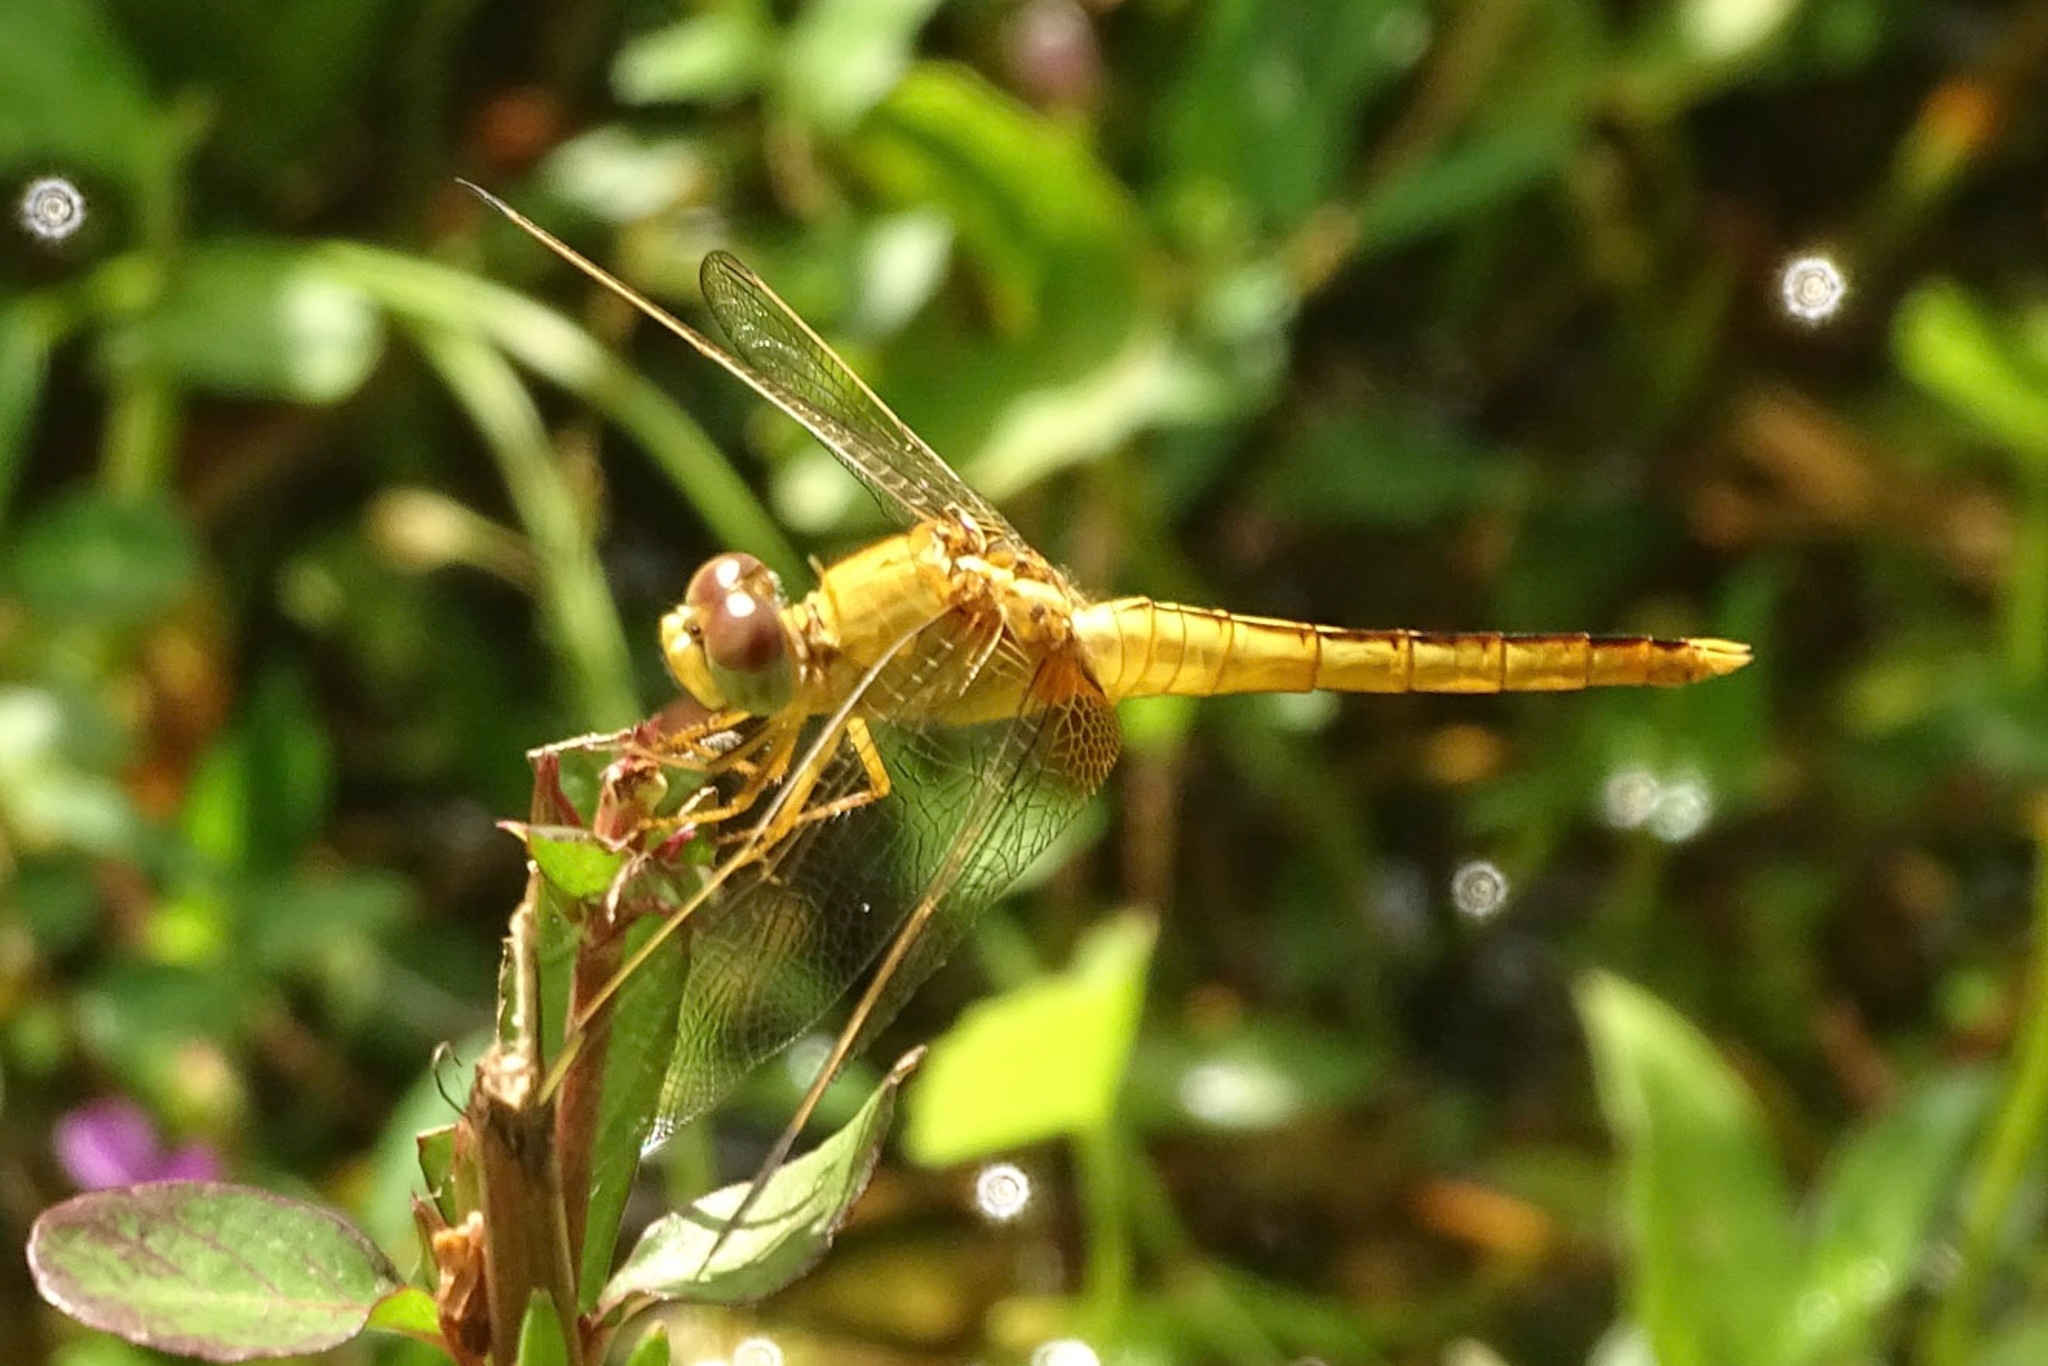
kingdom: Animalia
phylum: Arthropoda
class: Insecta
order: Odonata
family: Libellulidae
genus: Crocothemis
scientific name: Crocothemis servilia
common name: Scarlet skimmer
